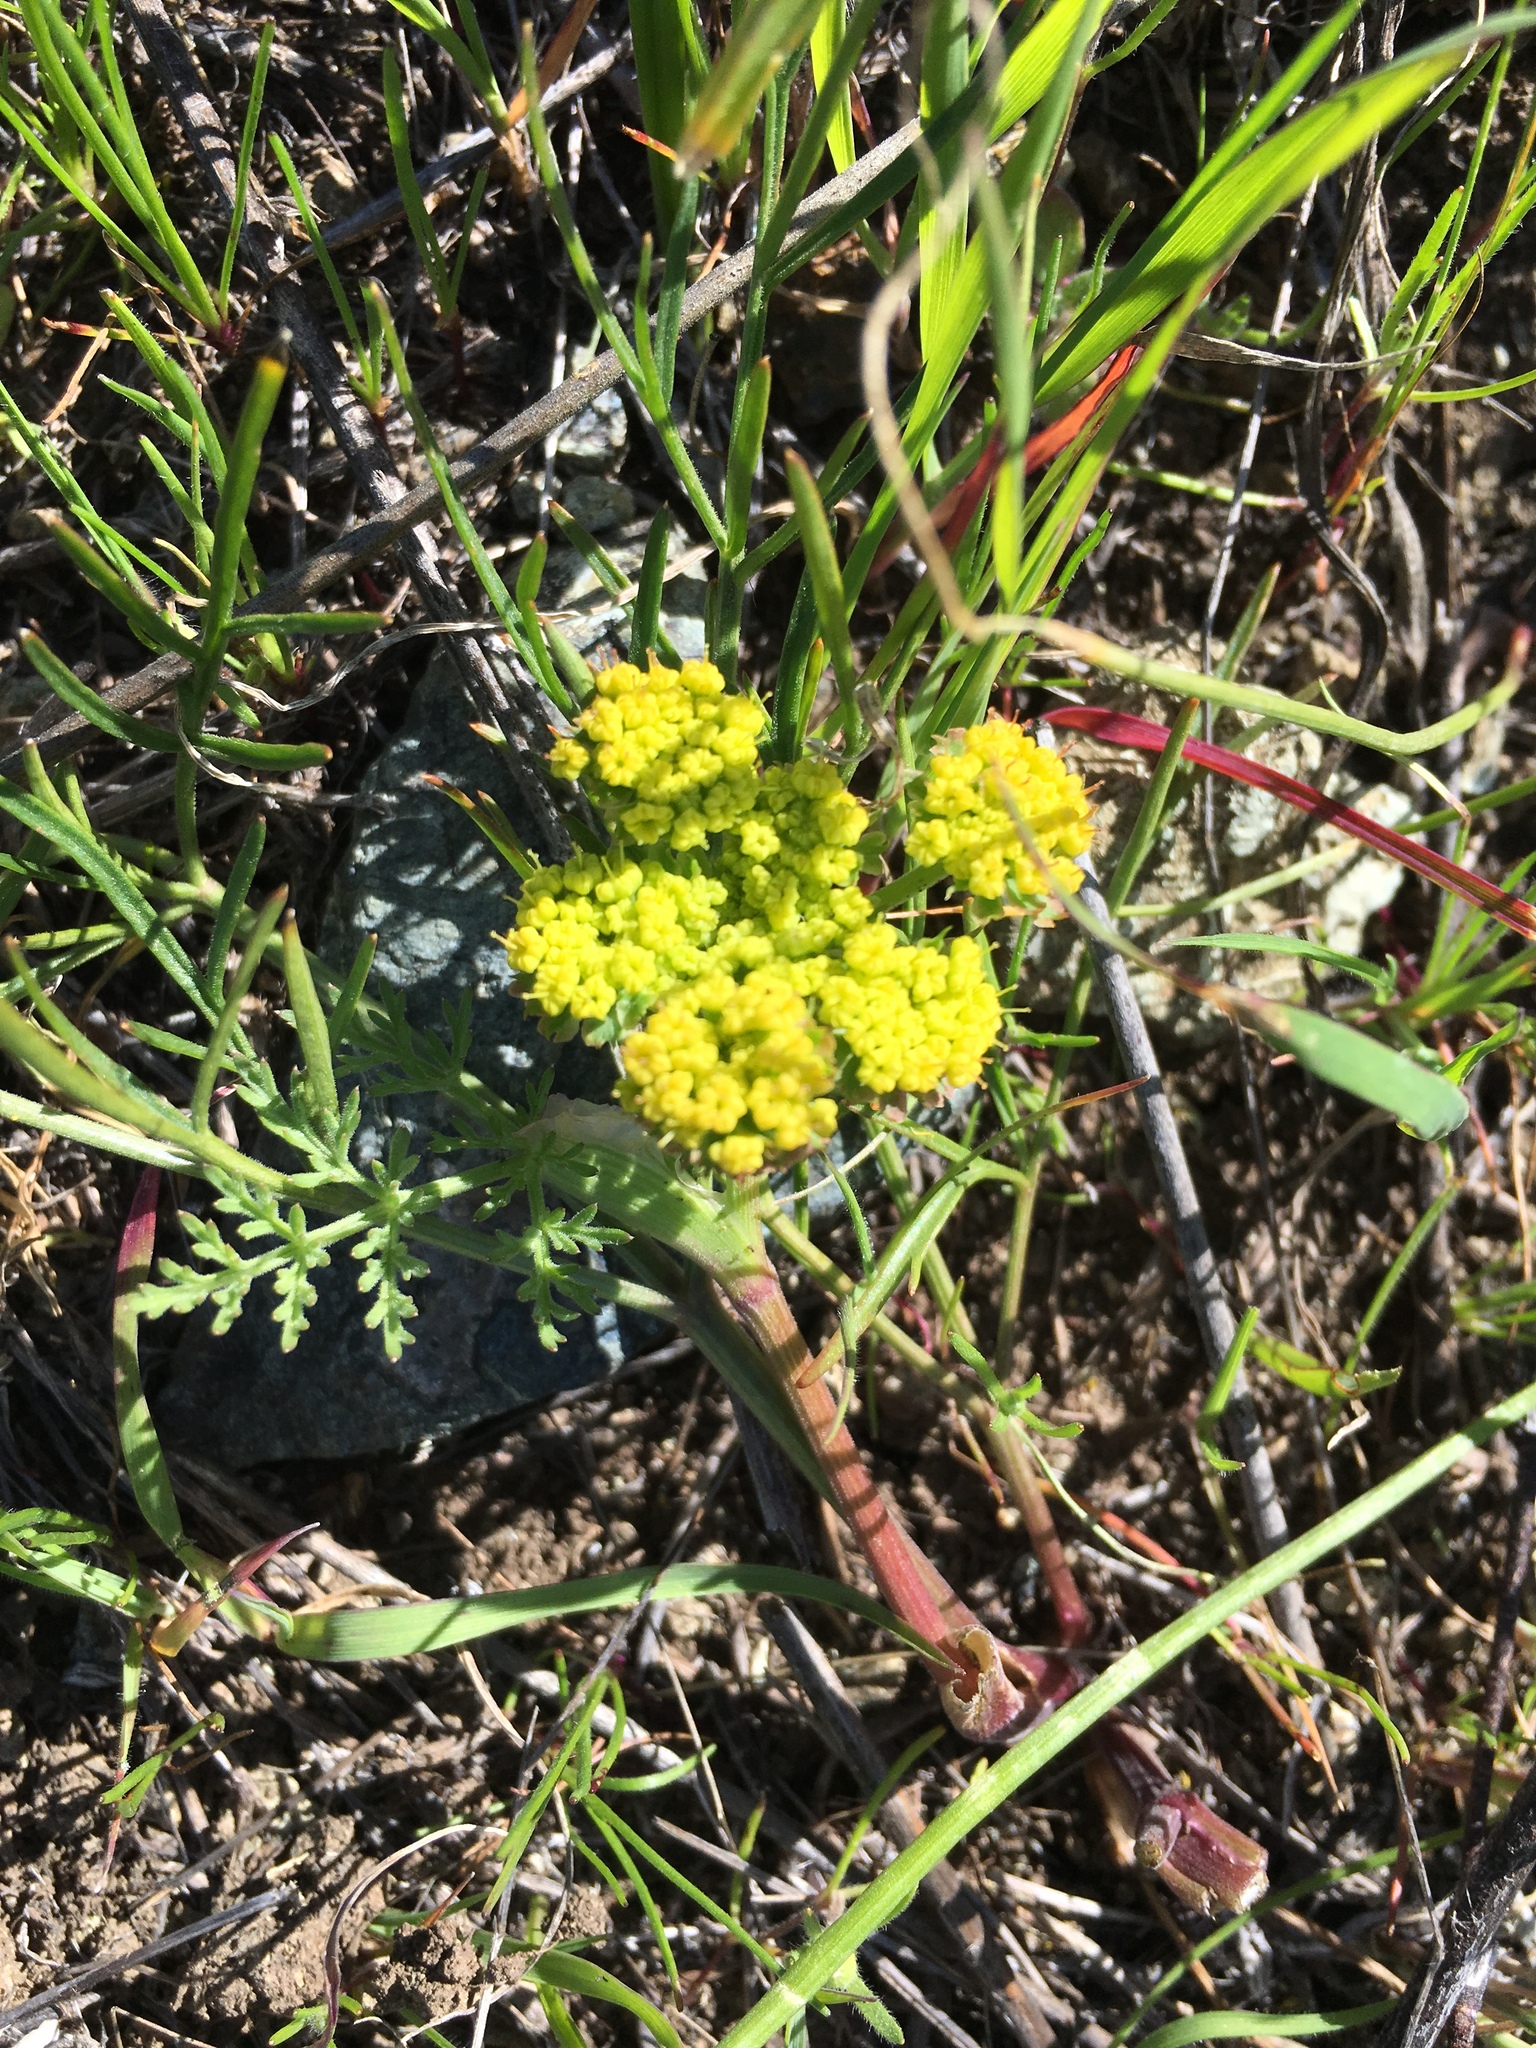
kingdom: Plantae
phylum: Tracheophyta
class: Magnoliopsida
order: Apiales
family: Apiaceae
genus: Lomatium
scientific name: Lomatium utriculatum
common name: Fine-leaf desert-parsley
